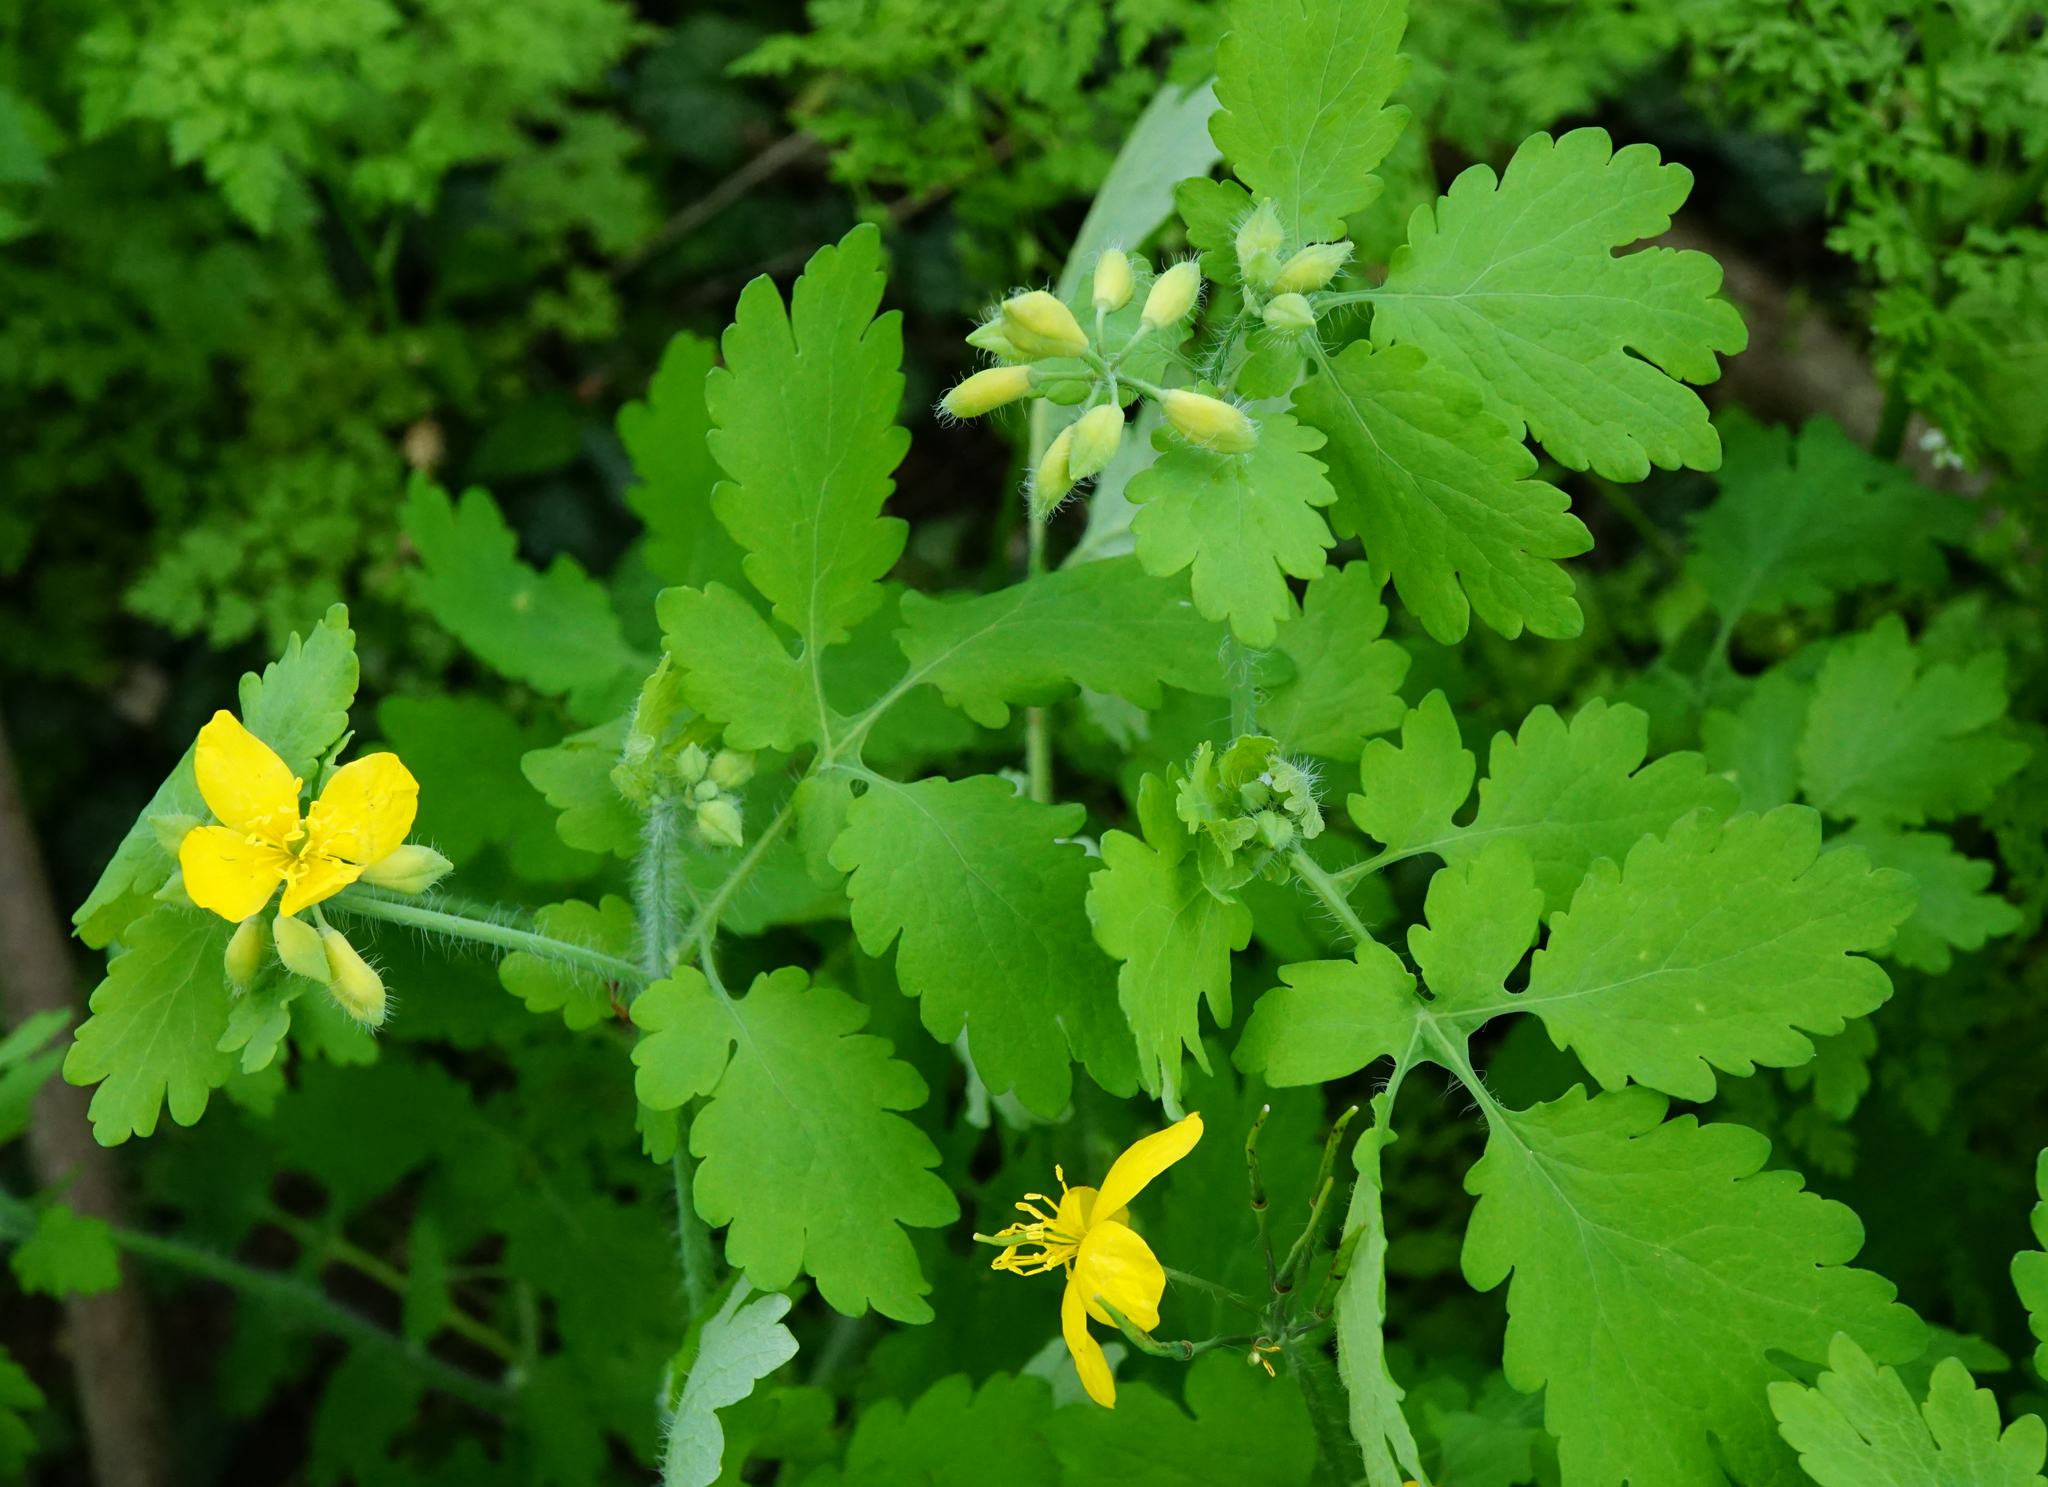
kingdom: Plantae
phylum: Tracheophyta
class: Magnoliopsida
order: Ranunculales
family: Papaveraceae
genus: Chelidonium
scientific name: Chelidonium majus
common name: Greater celandine
